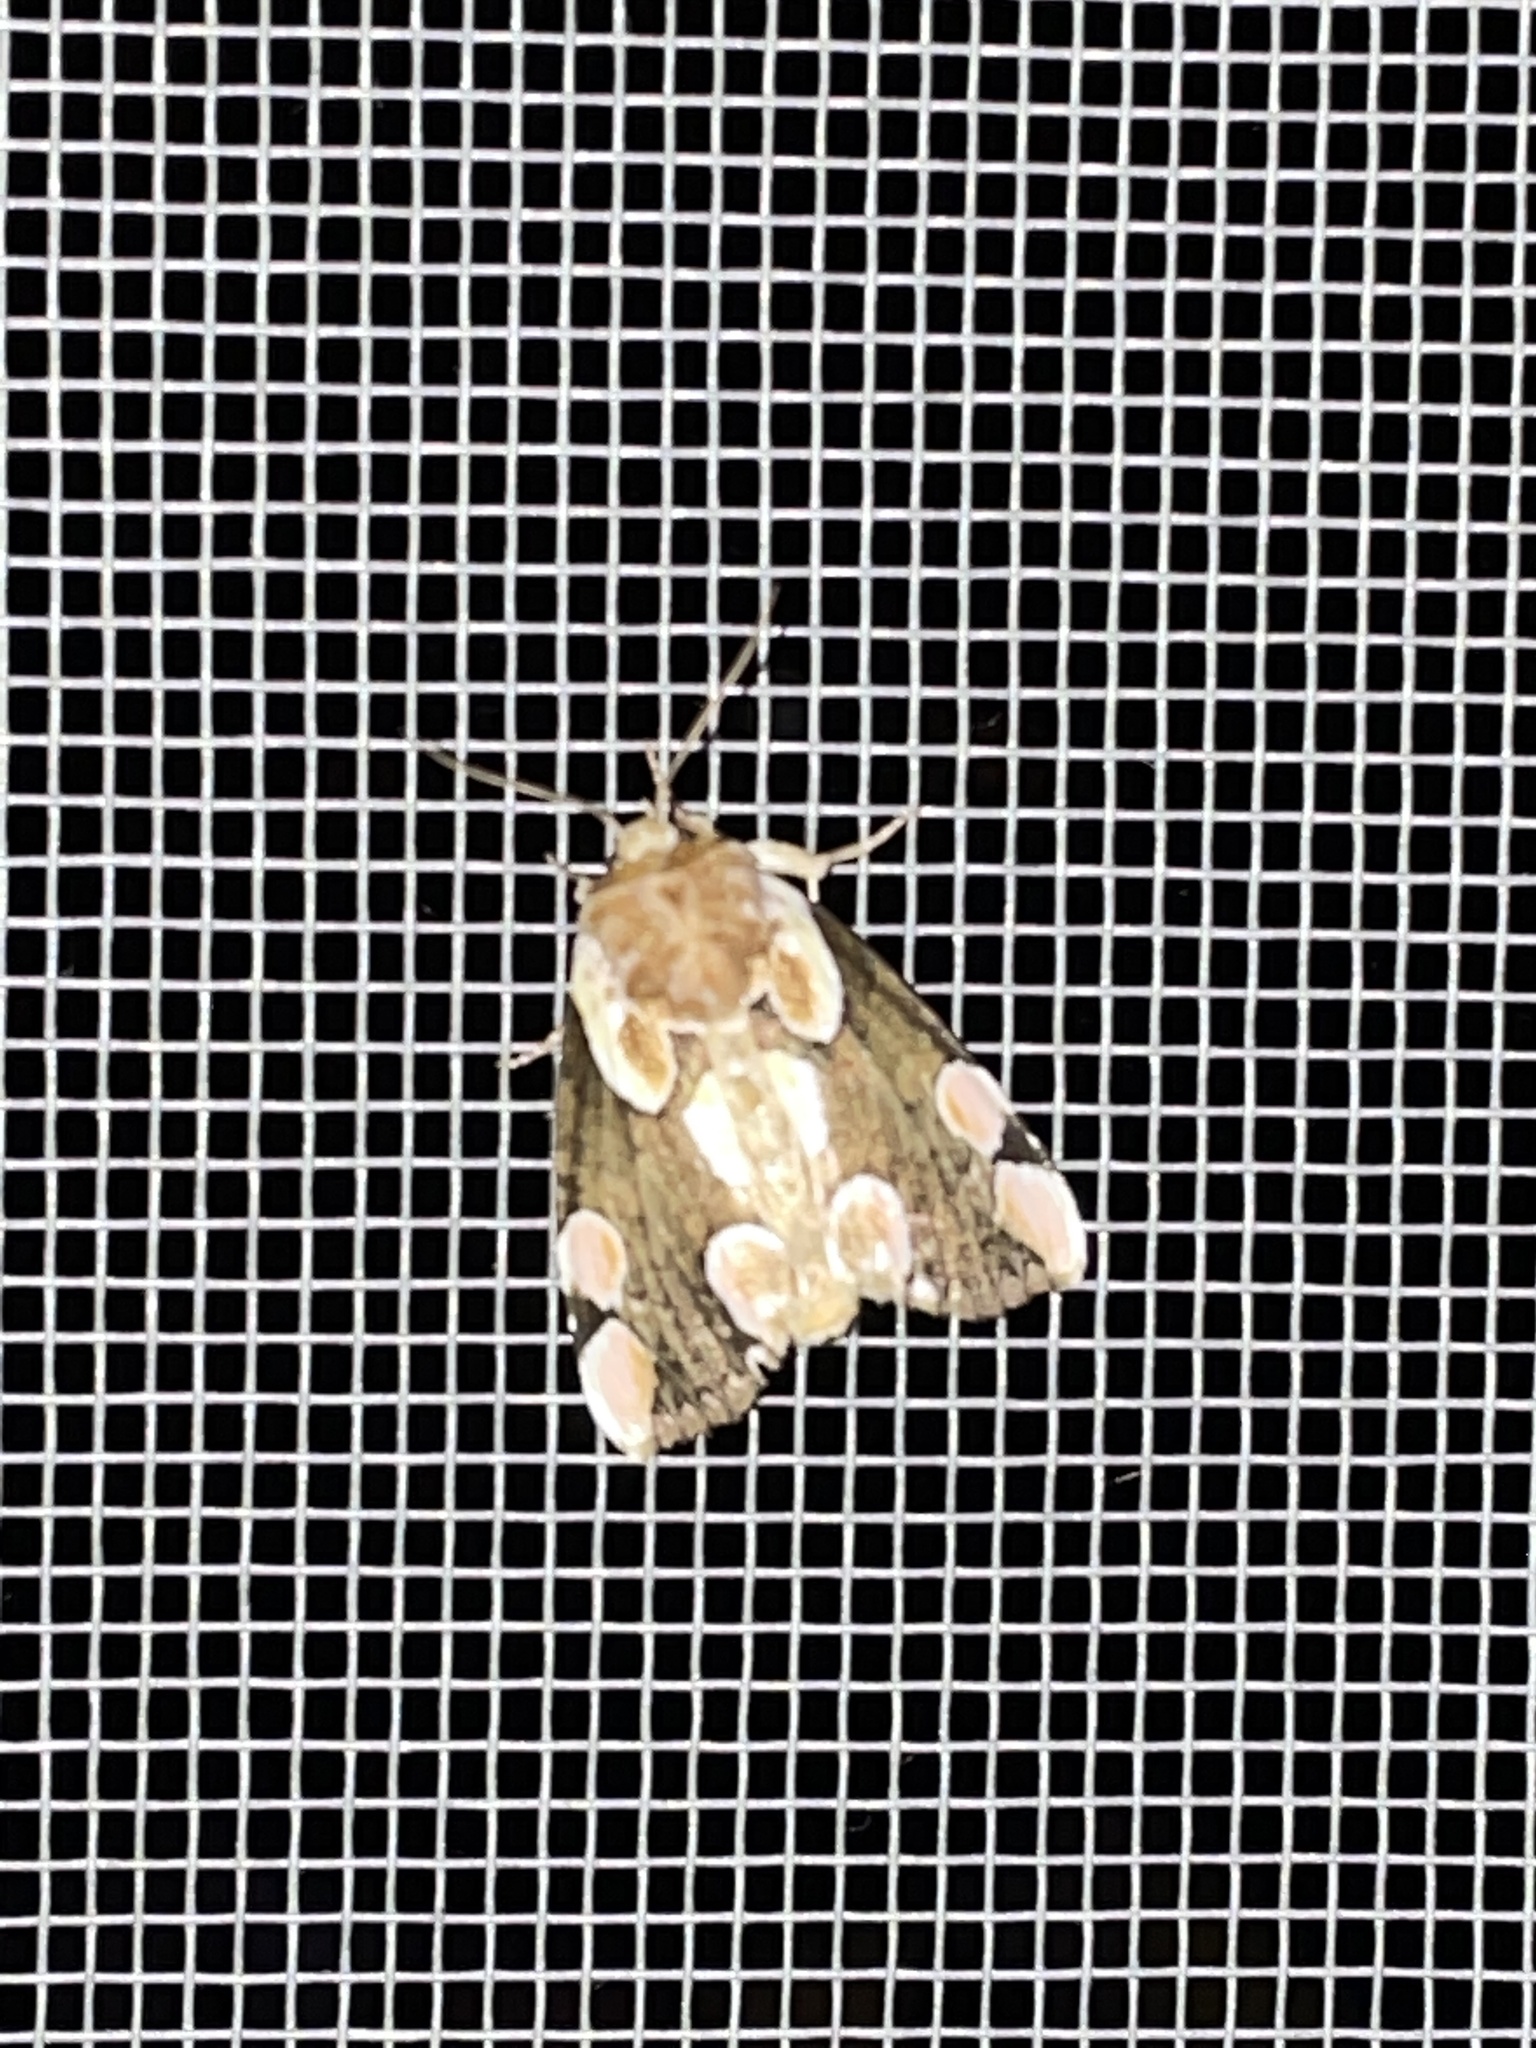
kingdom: Animalia
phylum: Arthropoda
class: Insecta
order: Lepidoptera
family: Drepanidae
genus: Thyatira
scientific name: Thyatira batis
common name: Peach blossom
